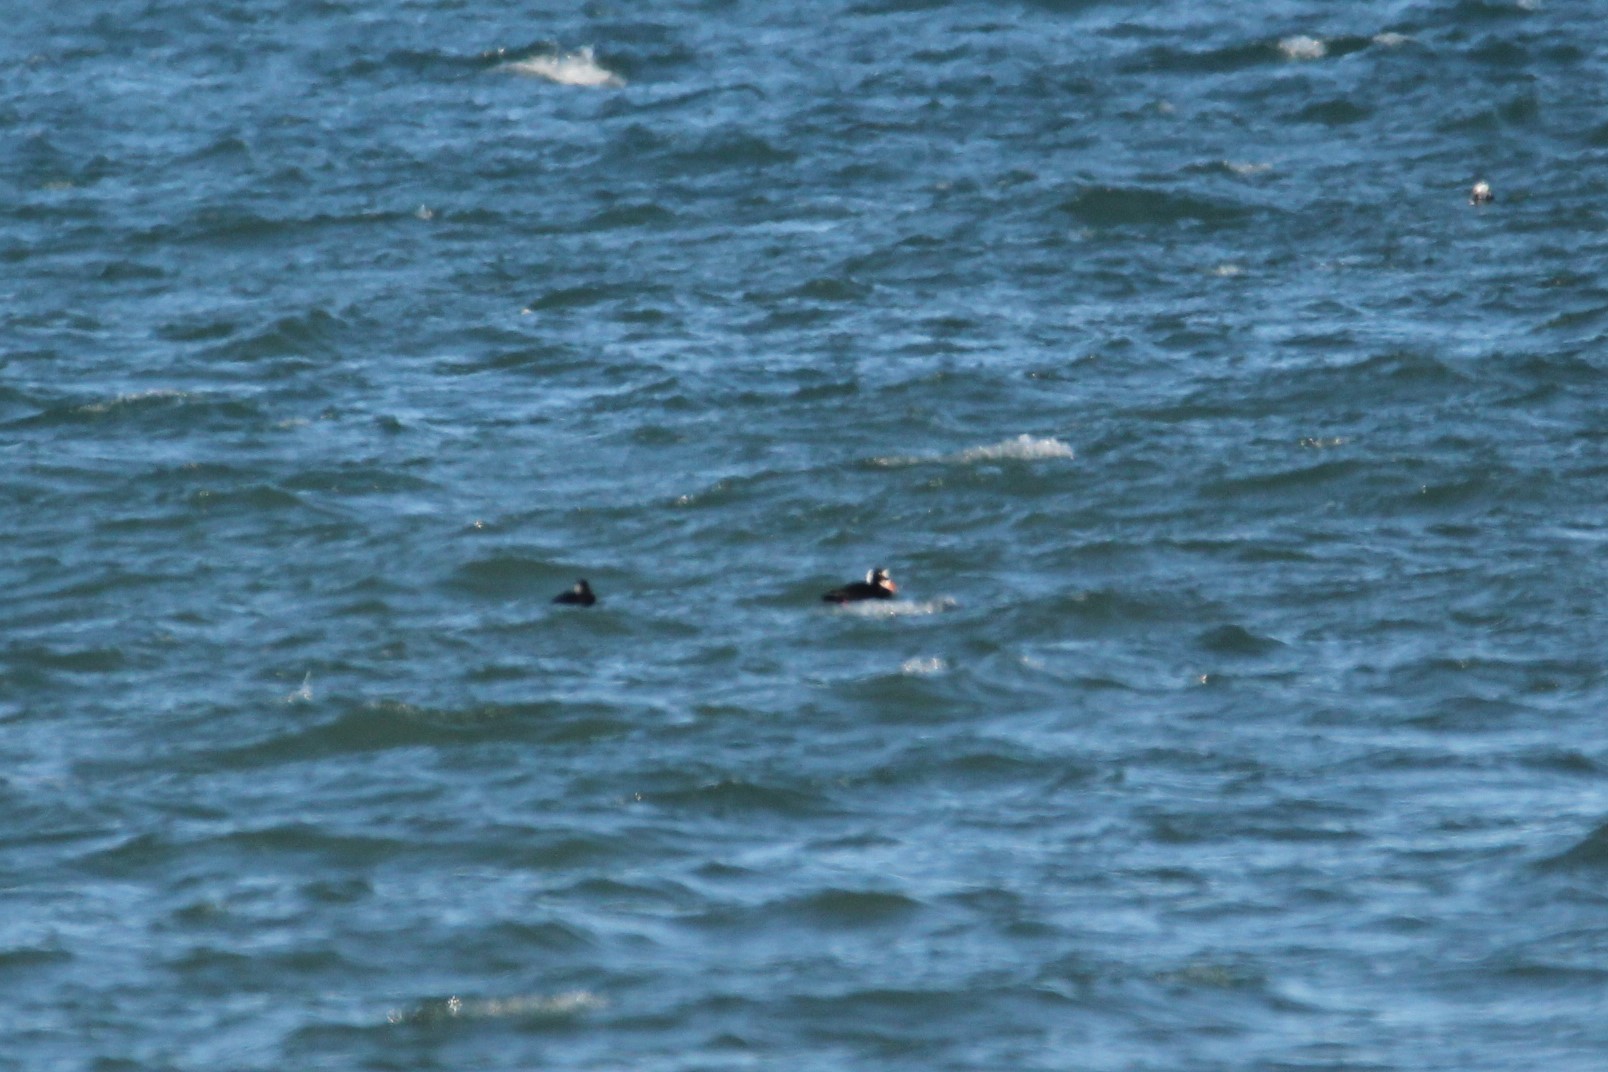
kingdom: Animalia
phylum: Chordata
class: Aves
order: Anseriformes
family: Anatidae
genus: Melanitta
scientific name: Melanitta perspicillata
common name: Surf scoter
